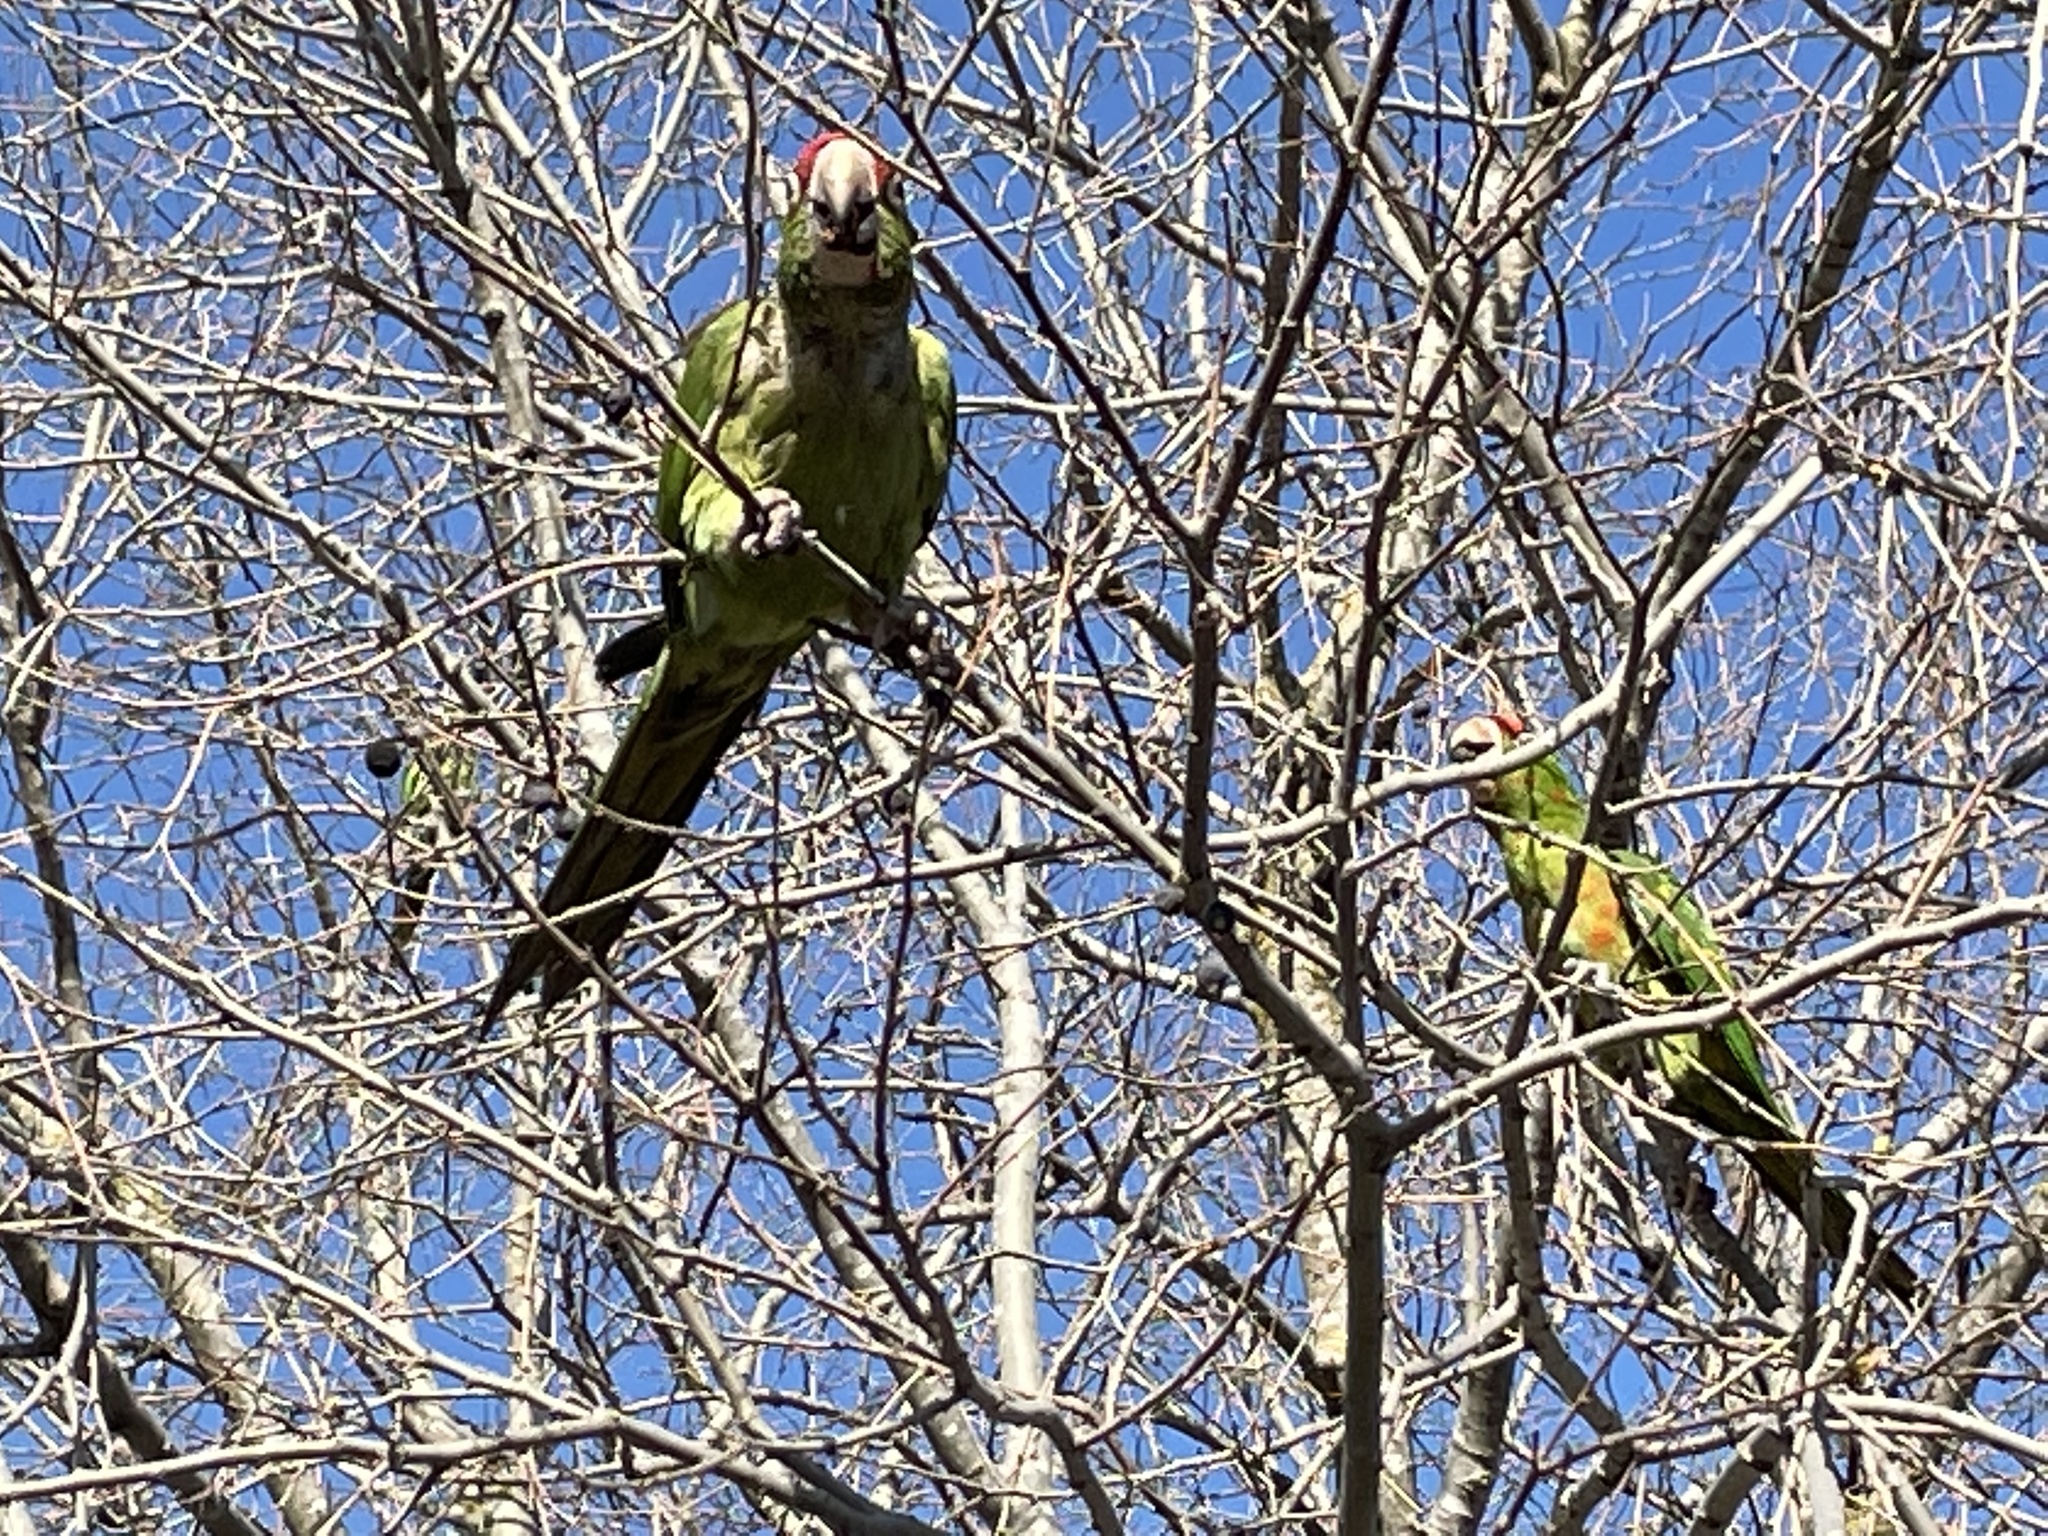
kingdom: Animalia
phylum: Chordata
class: Aves
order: Psittaciformes
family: Psittacidae
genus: Aratinga
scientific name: Aratinga mitrata
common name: Mitred parakeet
